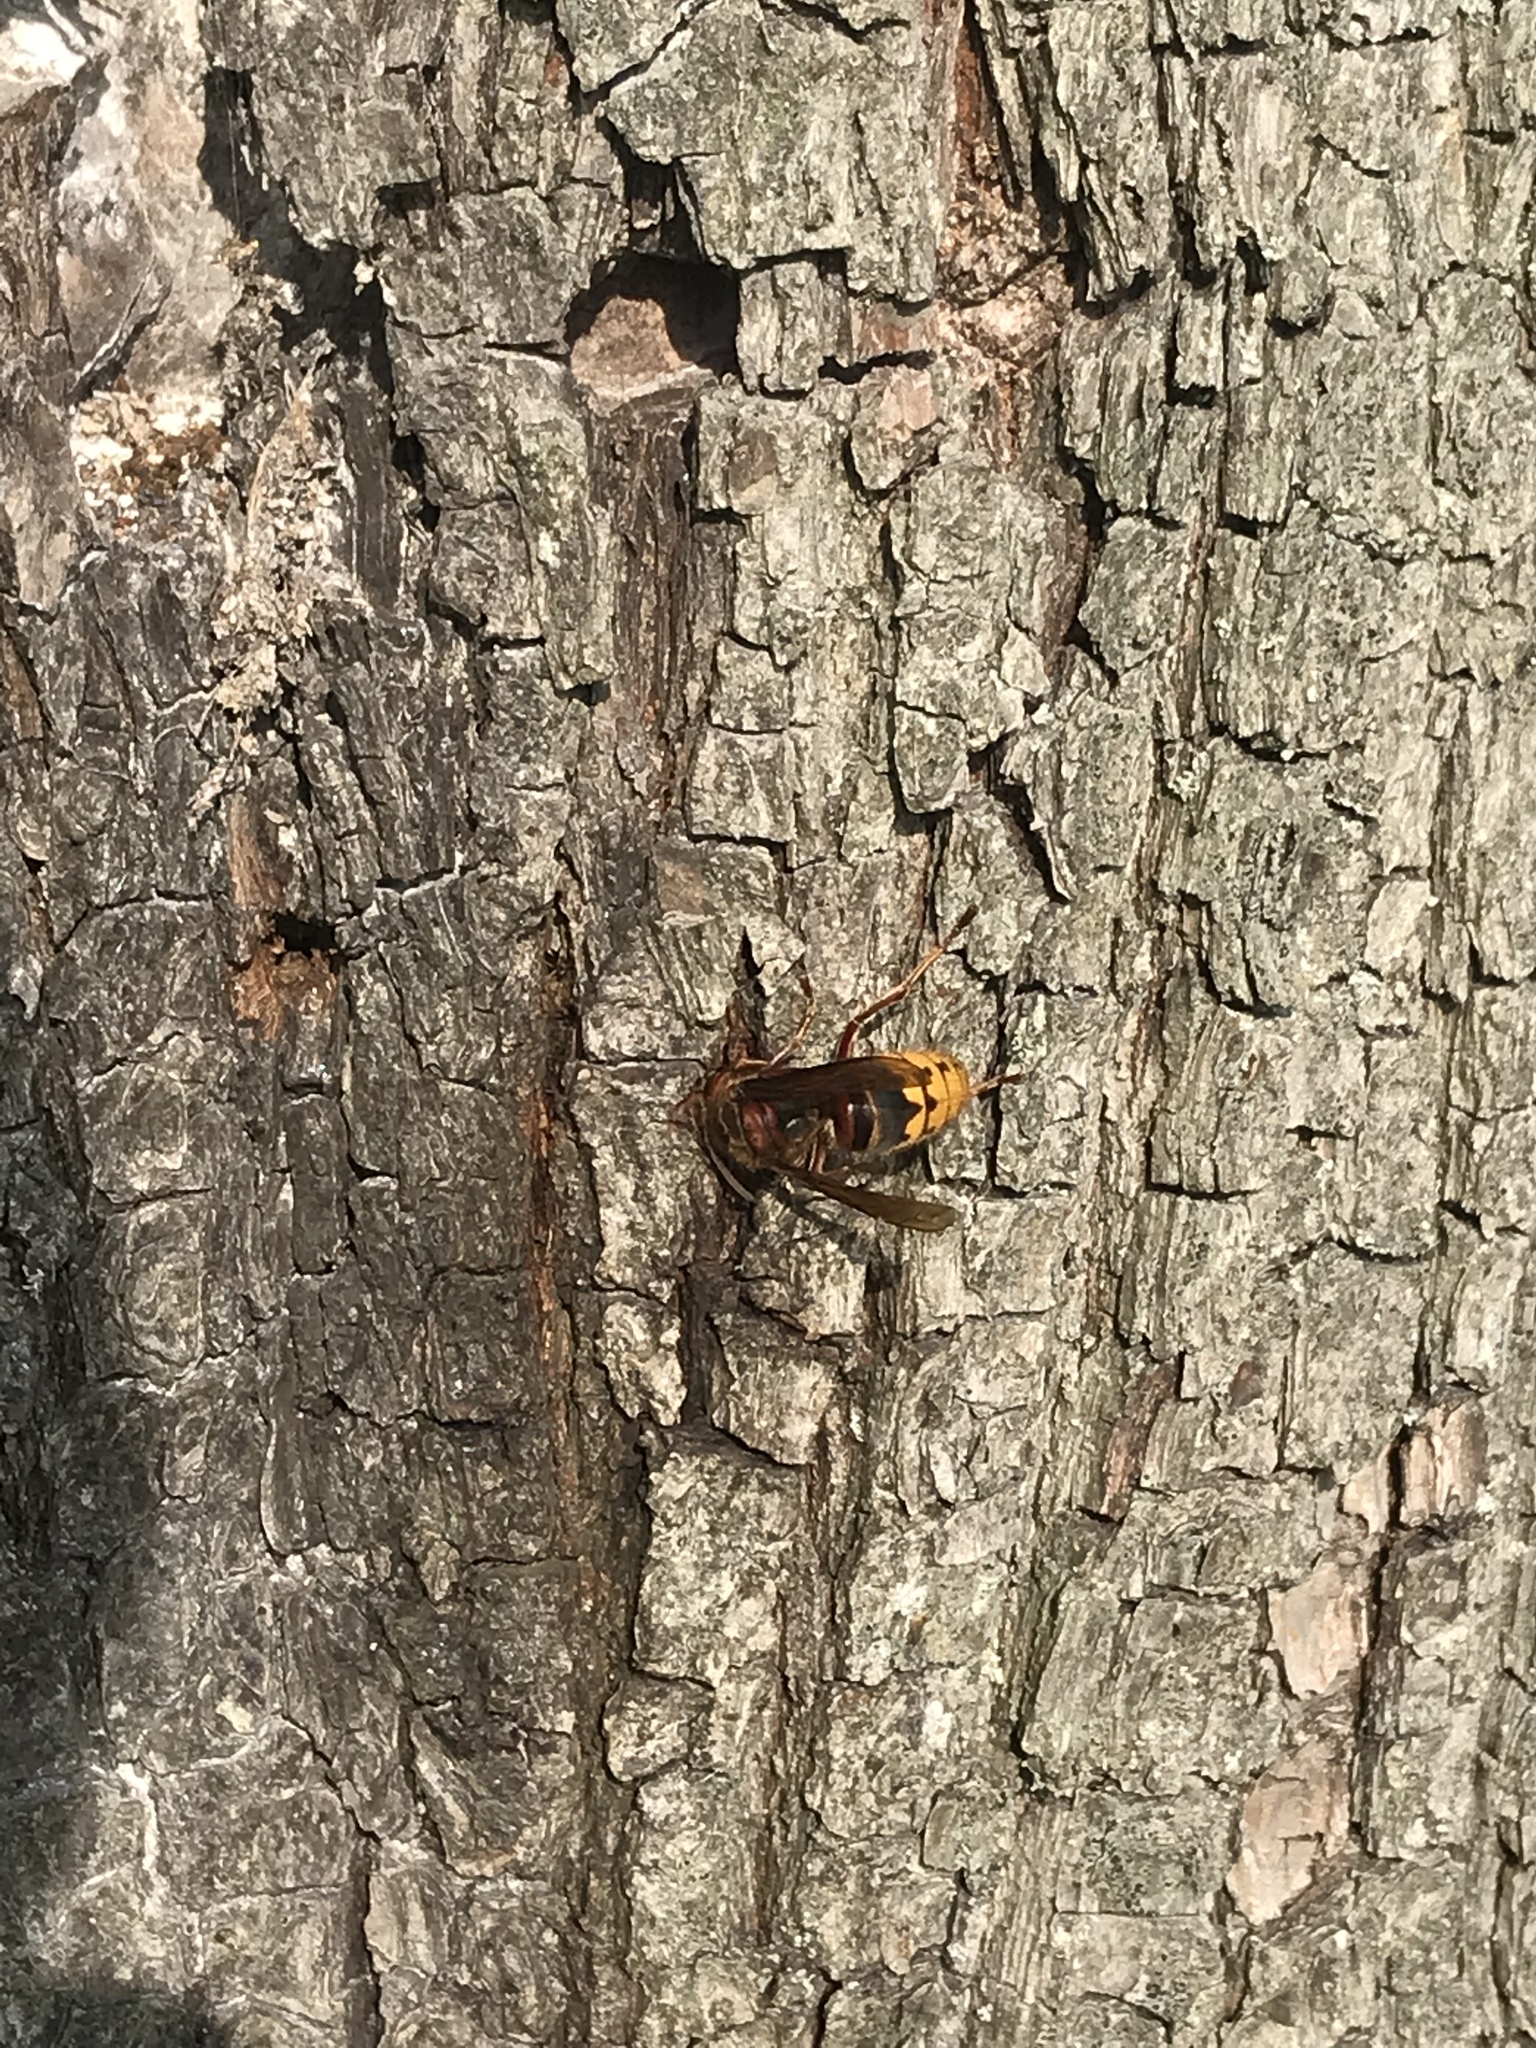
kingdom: Animalia
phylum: Arthropoda
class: Insecta
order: Hymenoptera
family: Vespidae
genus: Vespa
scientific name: Vespa crabro
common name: Hornet
